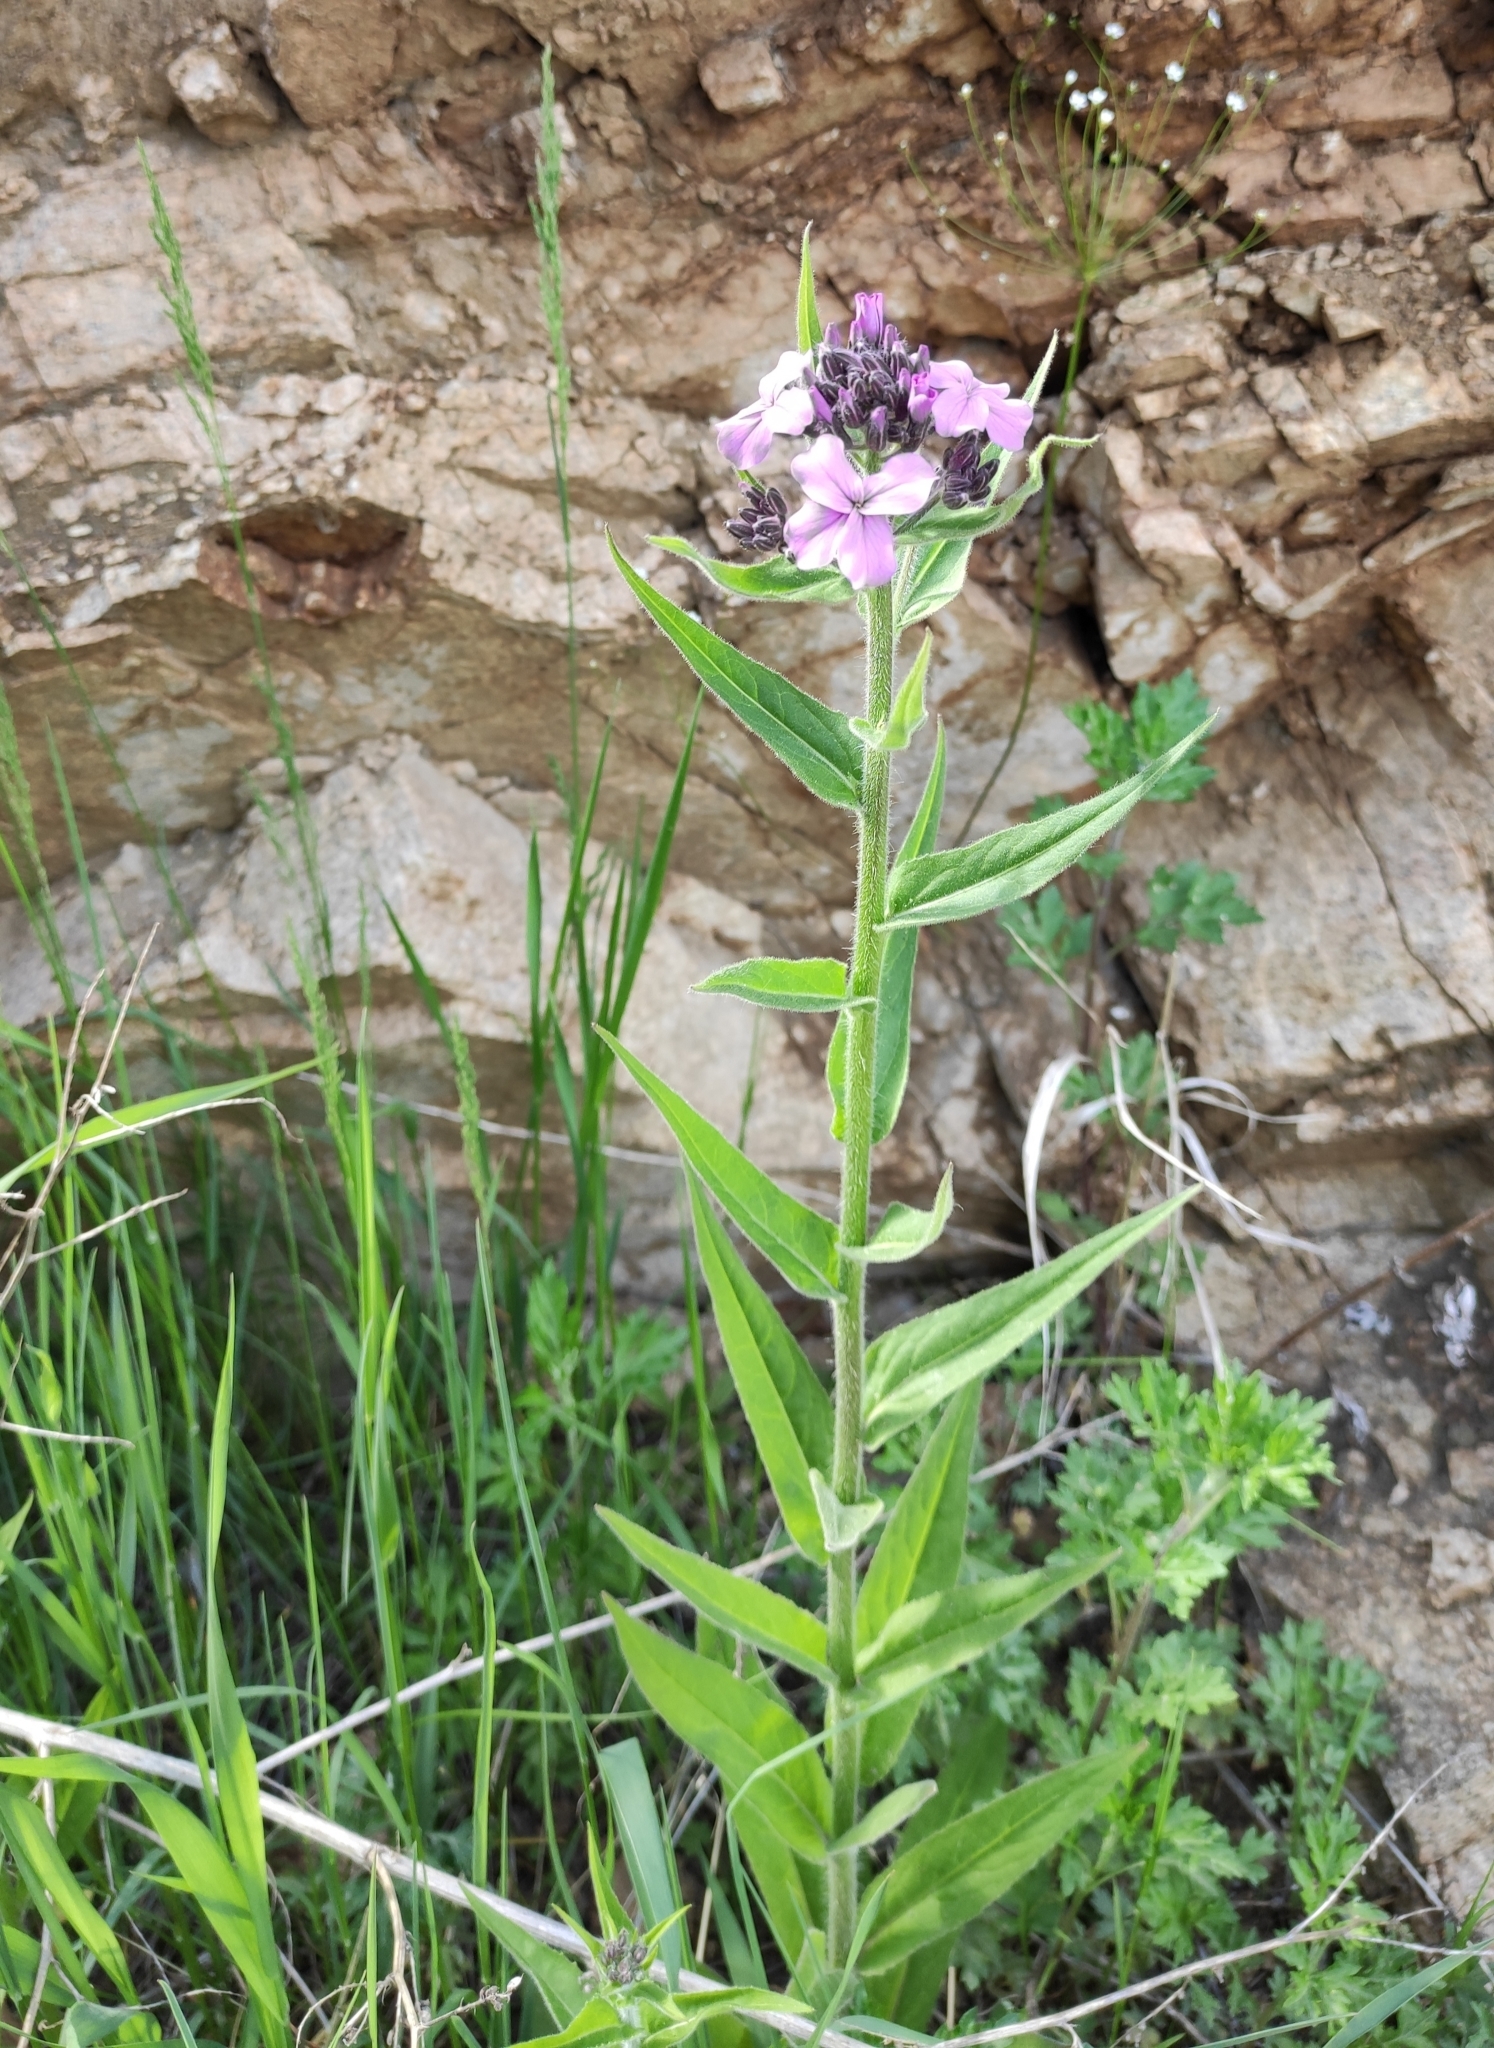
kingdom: Plantae
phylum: Tracheophyta
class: Magnoliopsida
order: Brassicales
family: Brassicaceae
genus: Hesperis
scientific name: Hesperis sibirica
